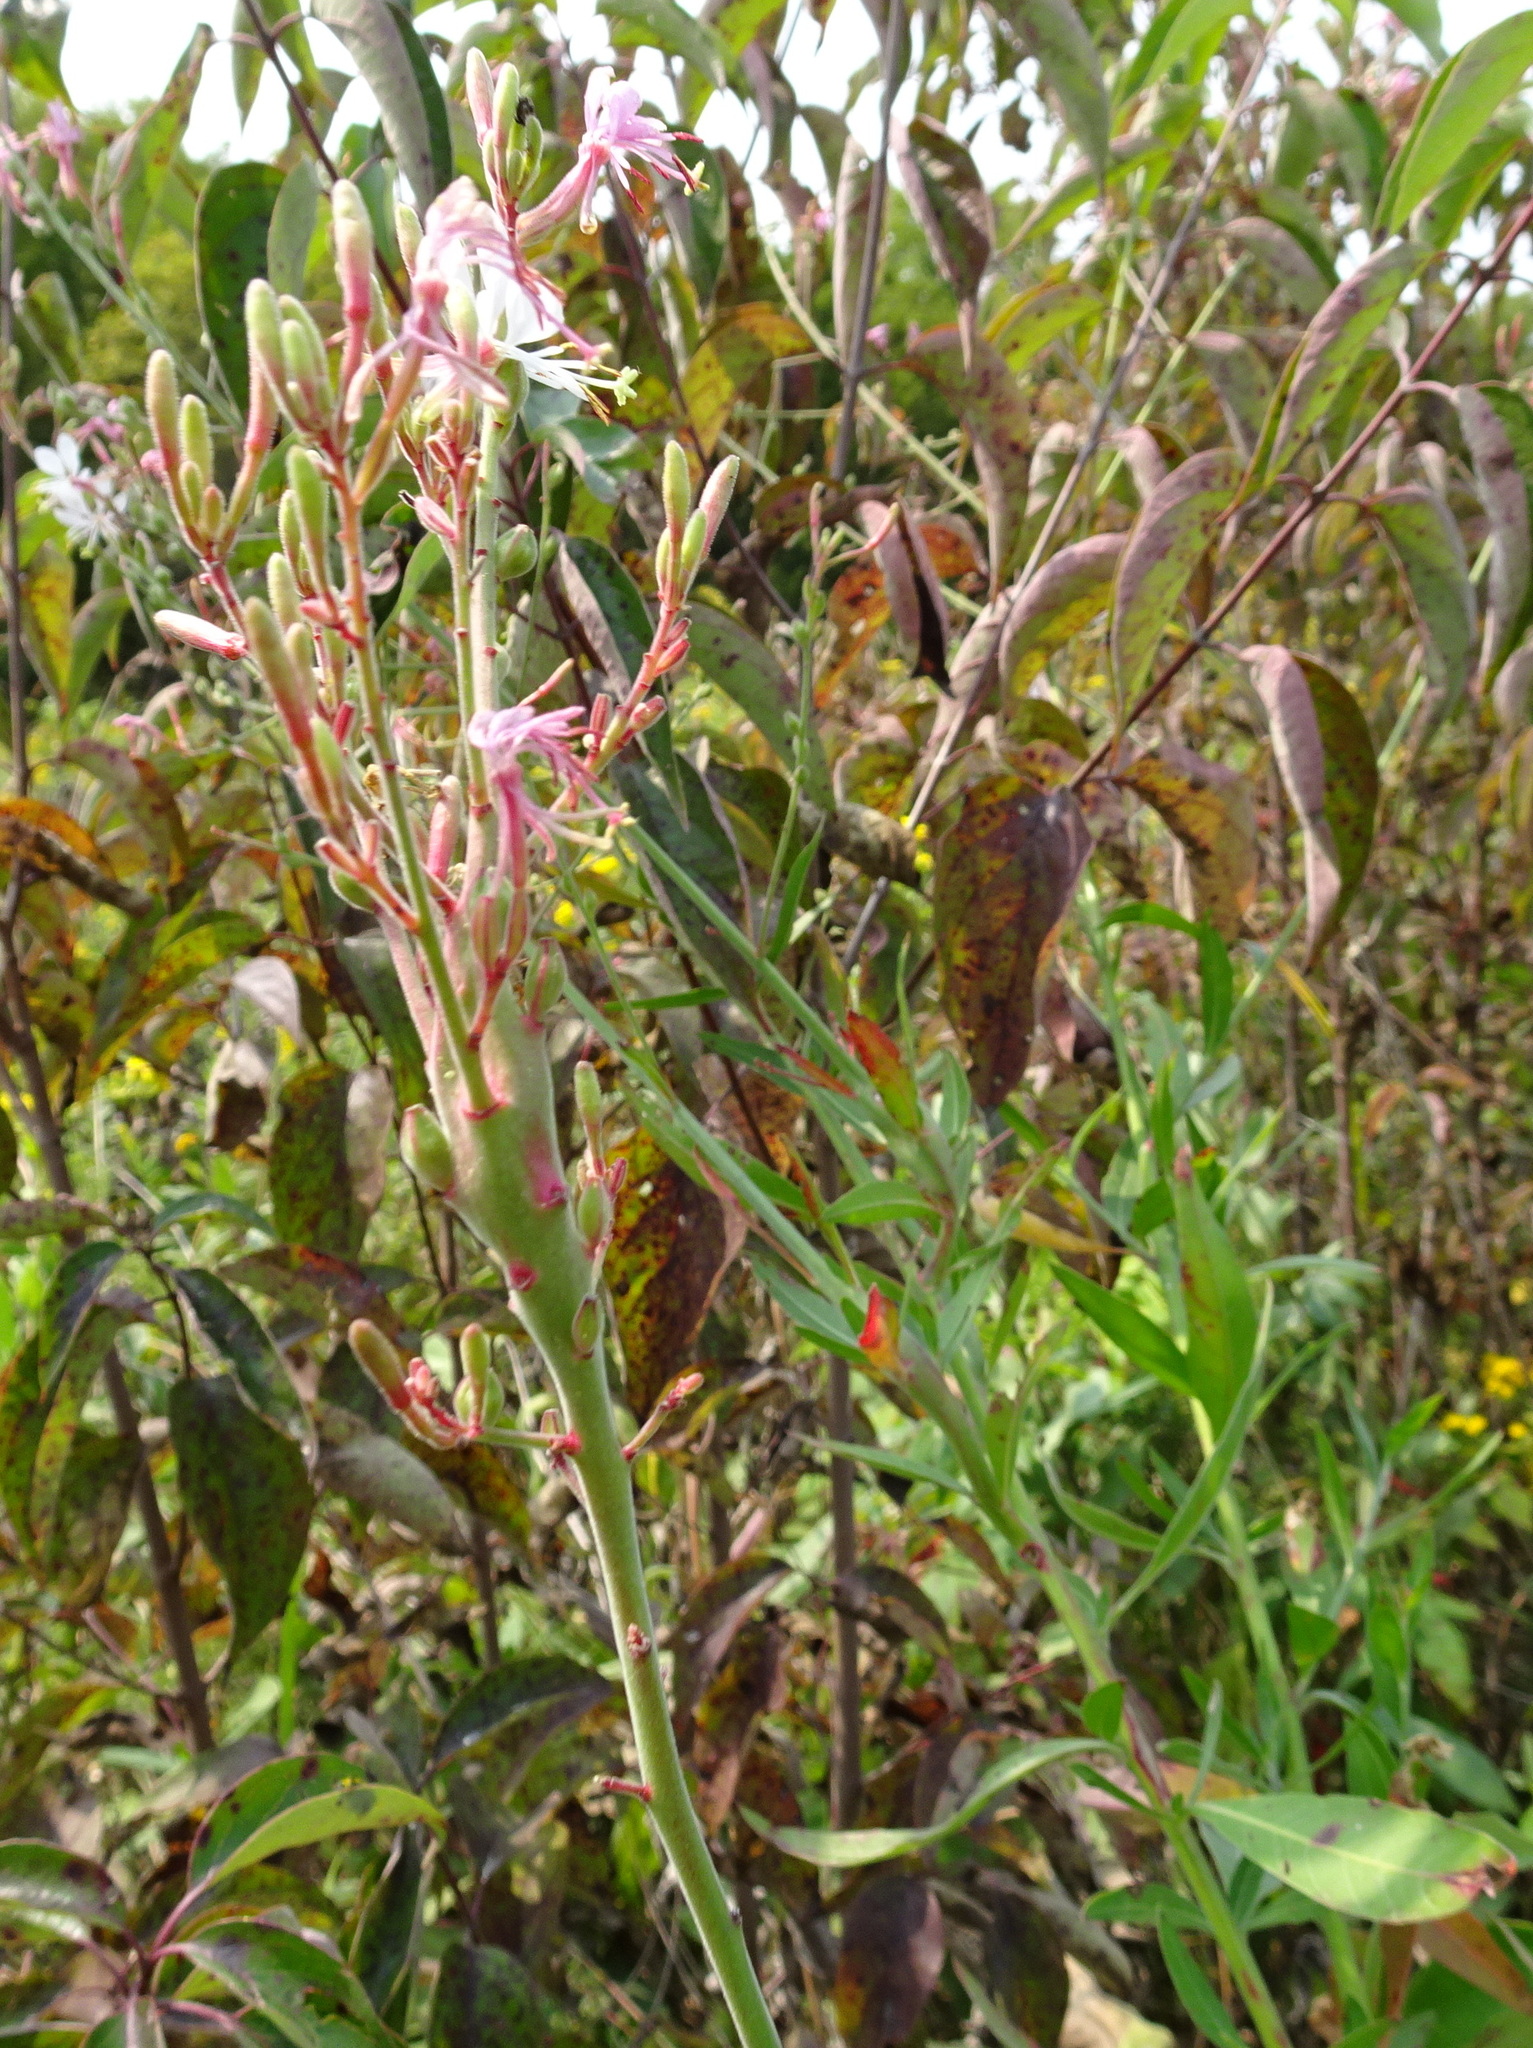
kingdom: Plantae
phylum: Tracheophyta
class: Magnoliopsida
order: Myrtales
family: Onagraceae
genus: Oenothera
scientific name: Oenothera filiformis
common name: Longflower beeblossom
